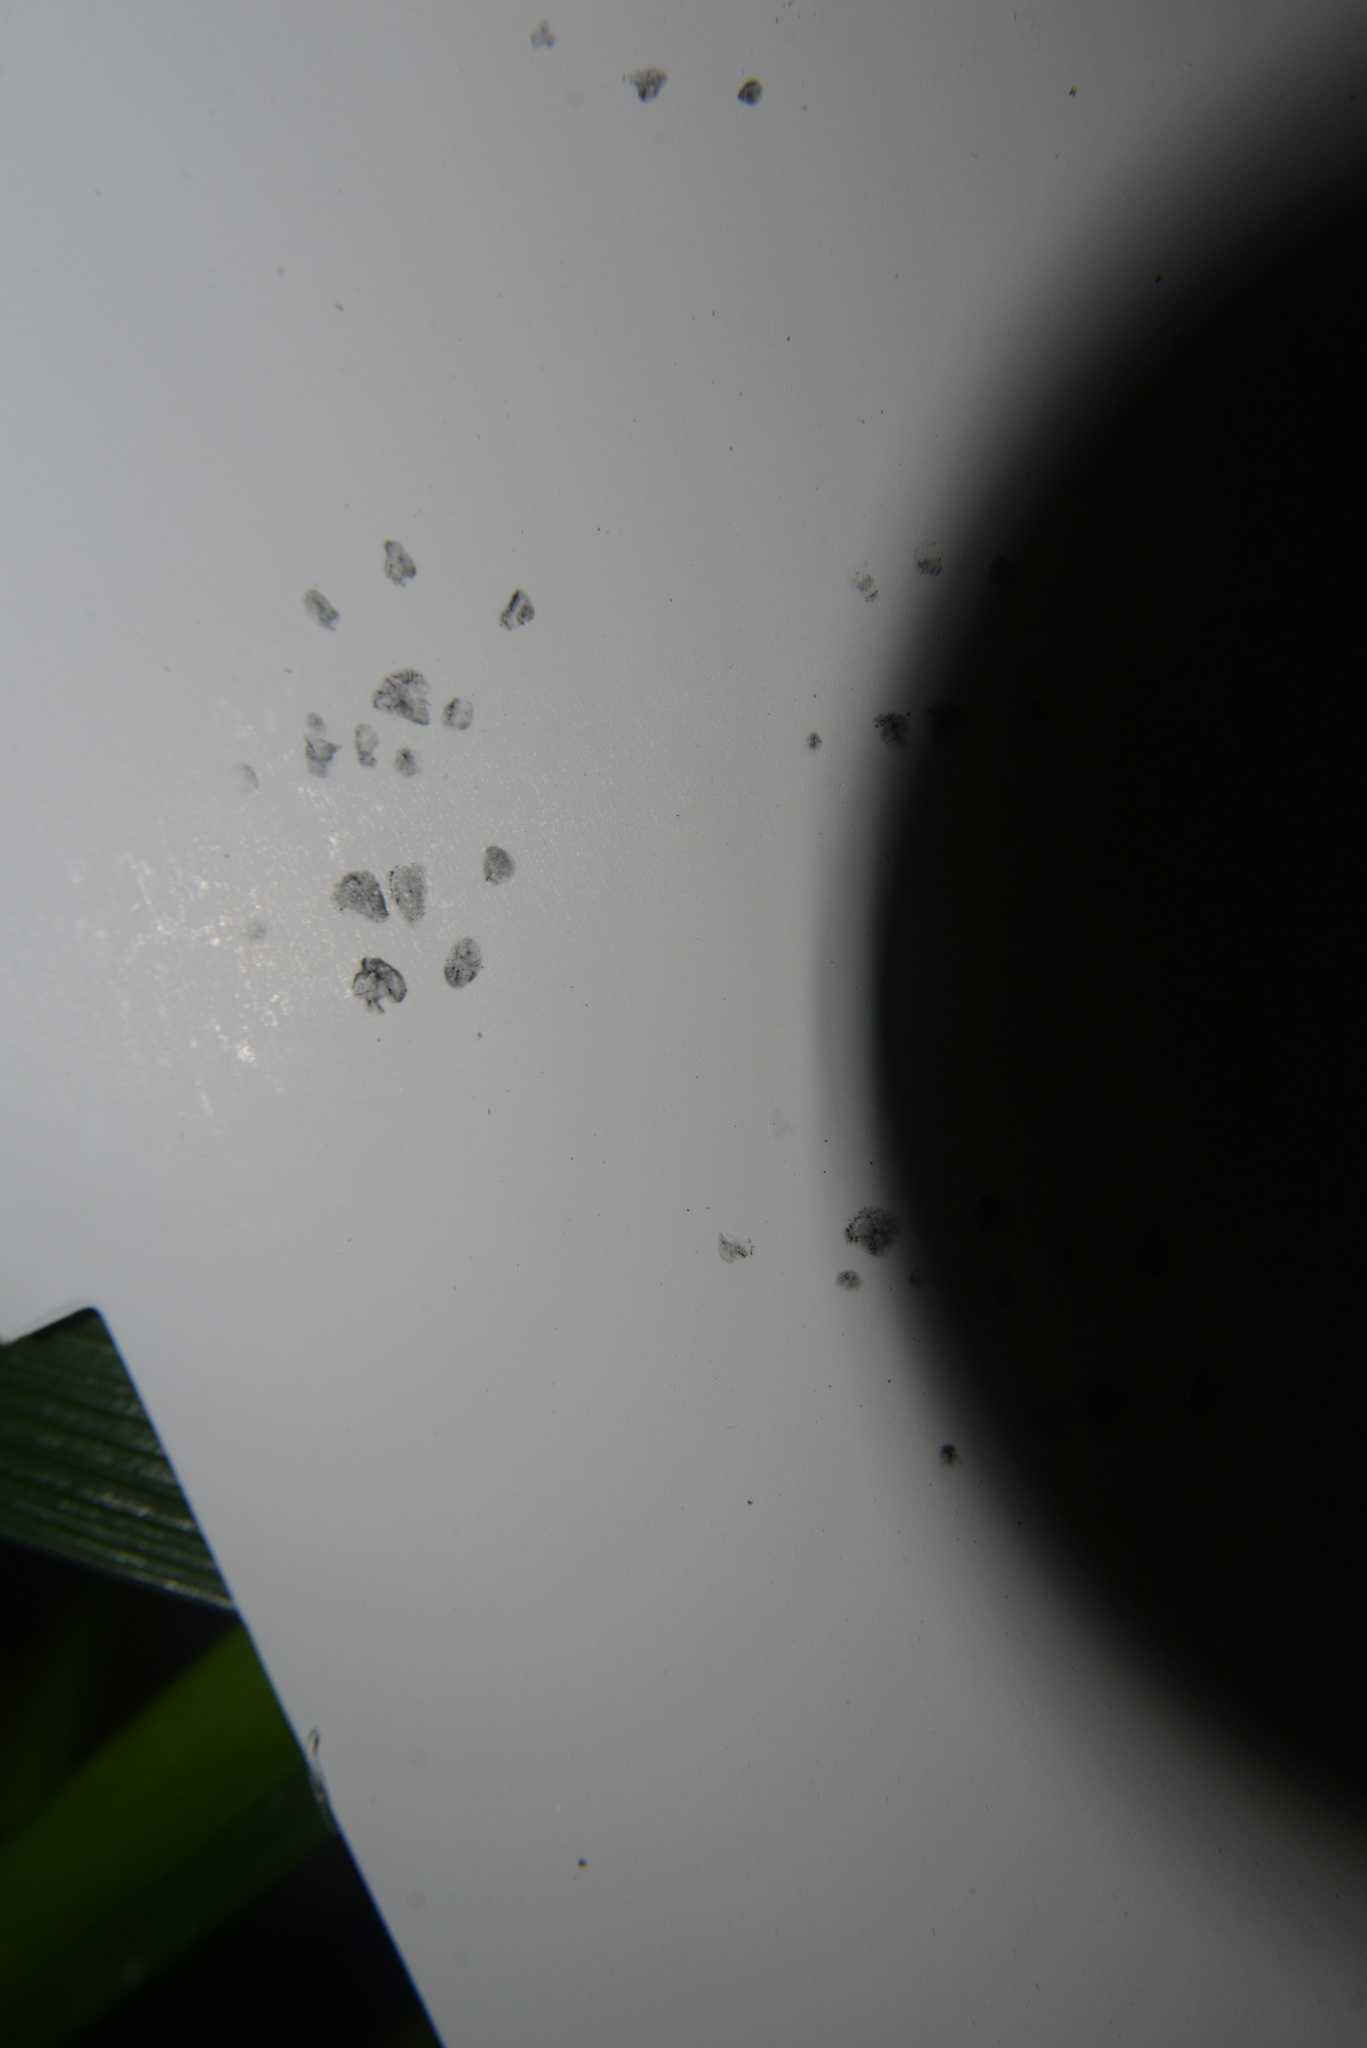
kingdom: Animalia
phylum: Chordata
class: Mammalia
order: Rodentia
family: Muridae
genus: Rattus
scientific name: Rattus
